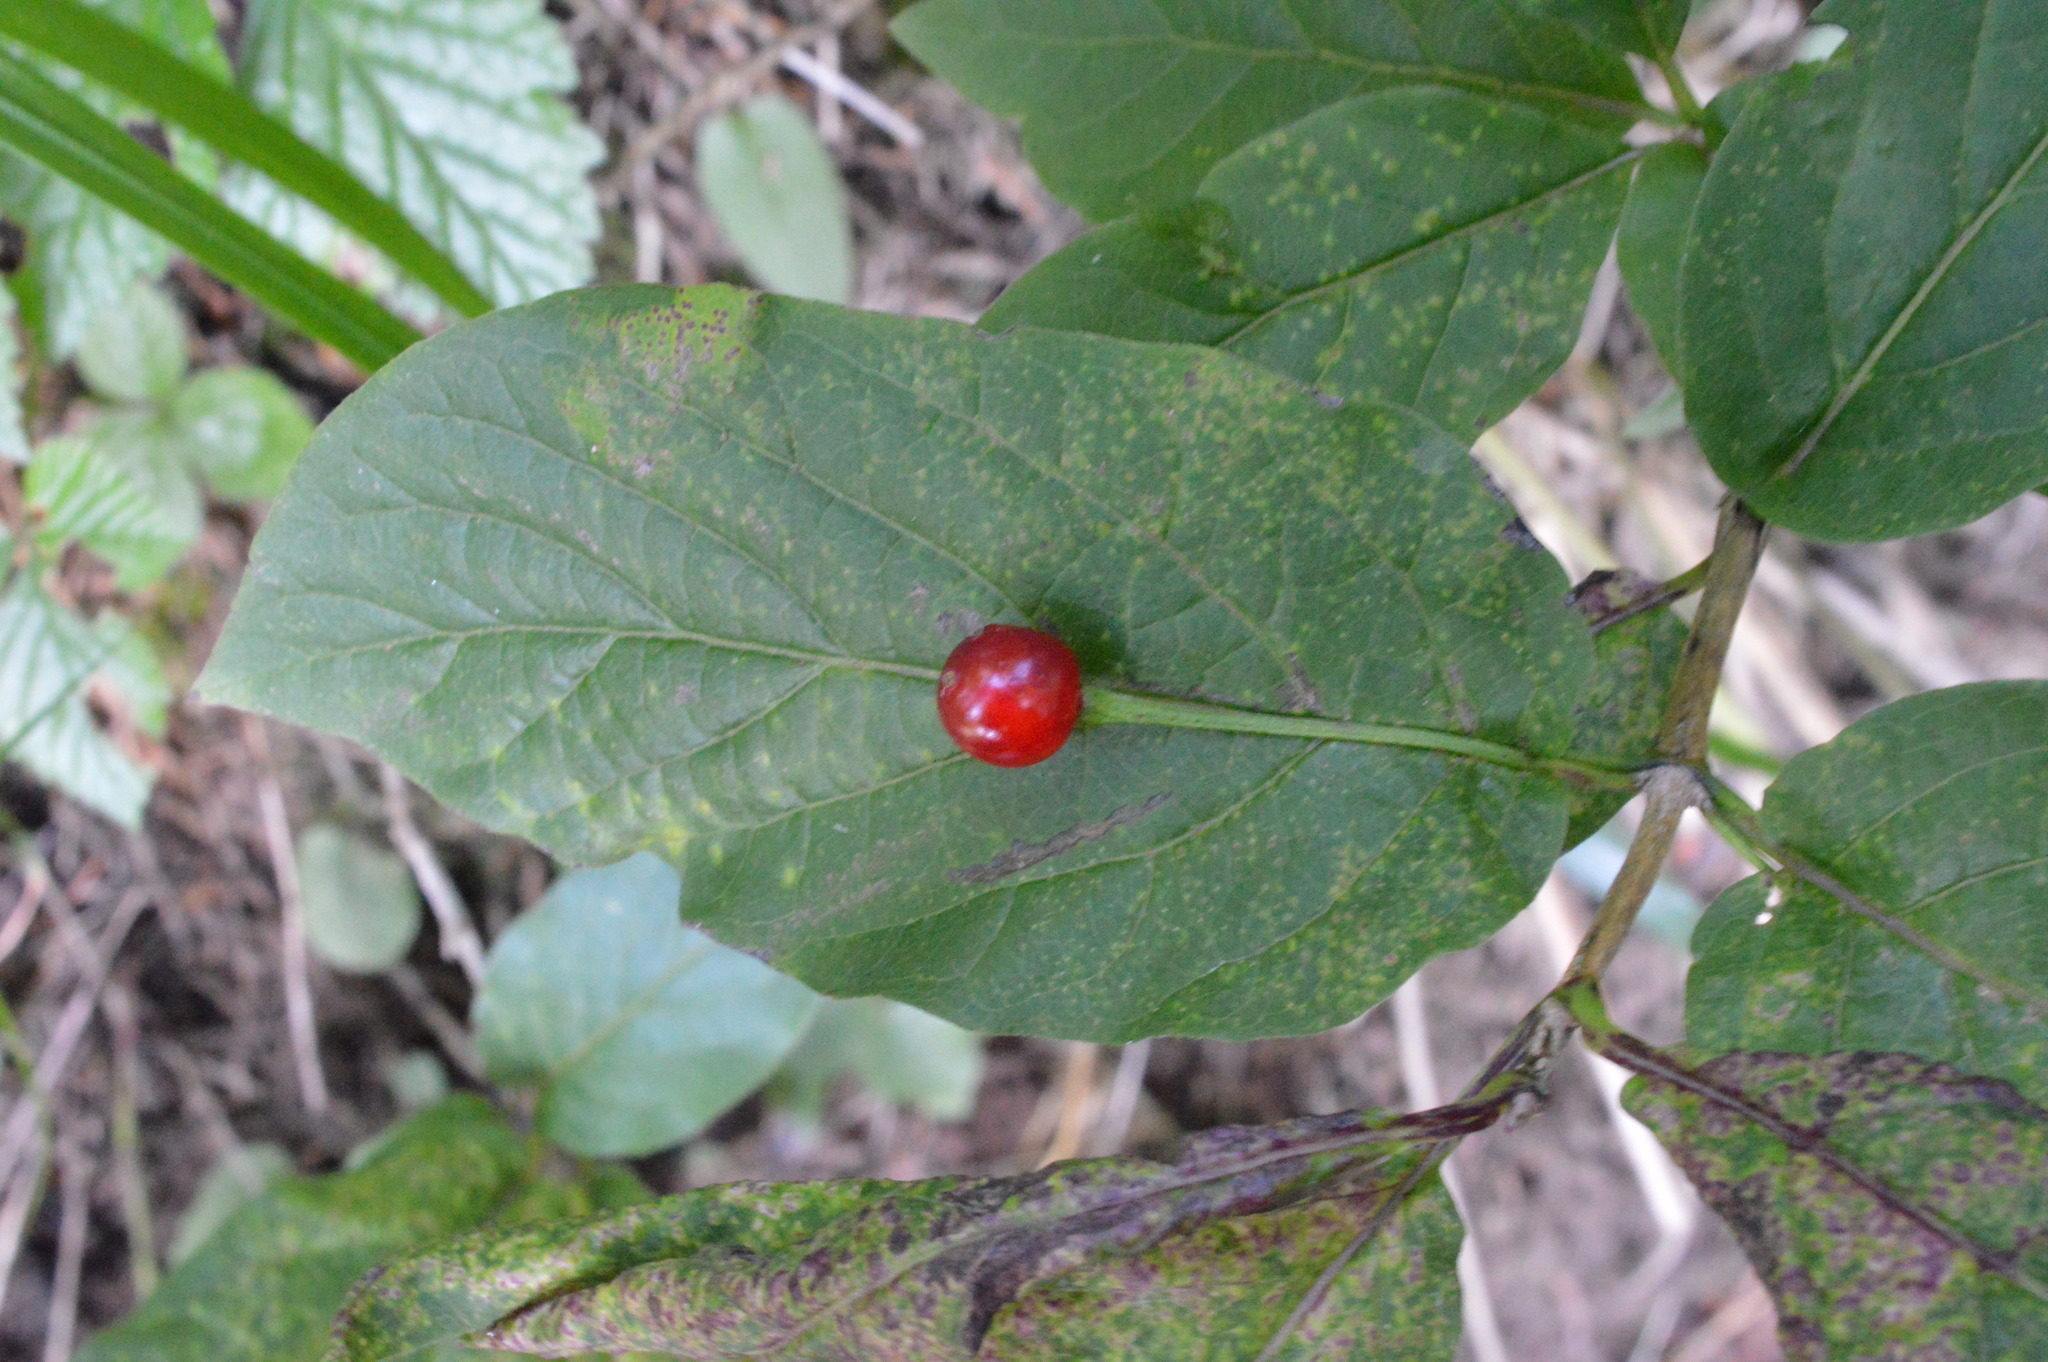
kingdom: Plantae
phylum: Tracheophyta
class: Magnoliopsida
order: Dipsacales
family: Caprifoliaceae
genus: Lonicera
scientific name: Lonicera alpigena
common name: Alpine honeysuckle
